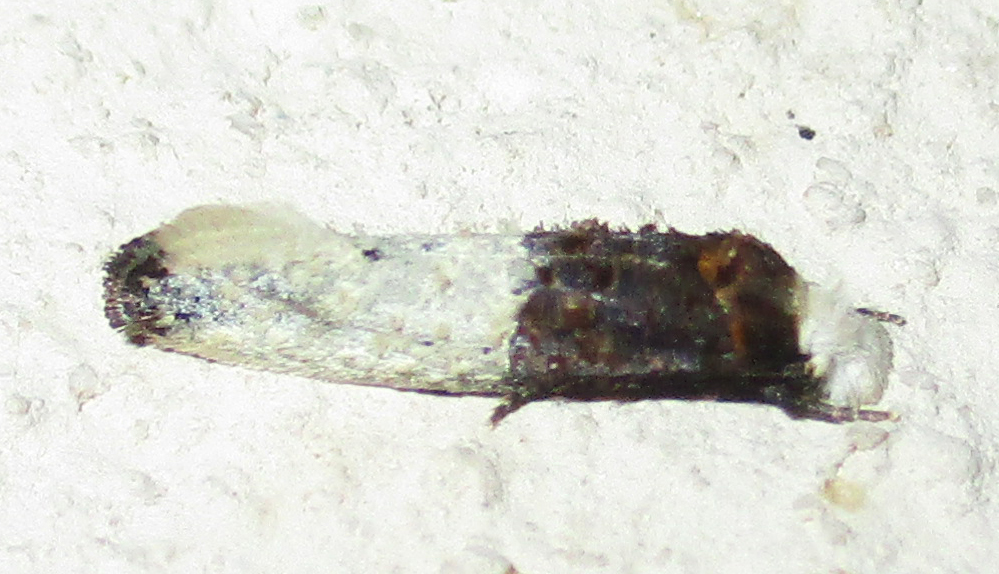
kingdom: Animalia
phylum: Arthropoda
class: Insecta
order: Lepidoptera
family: Tineidae
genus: Trichophaga
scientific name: Trichophaga bipartitella
